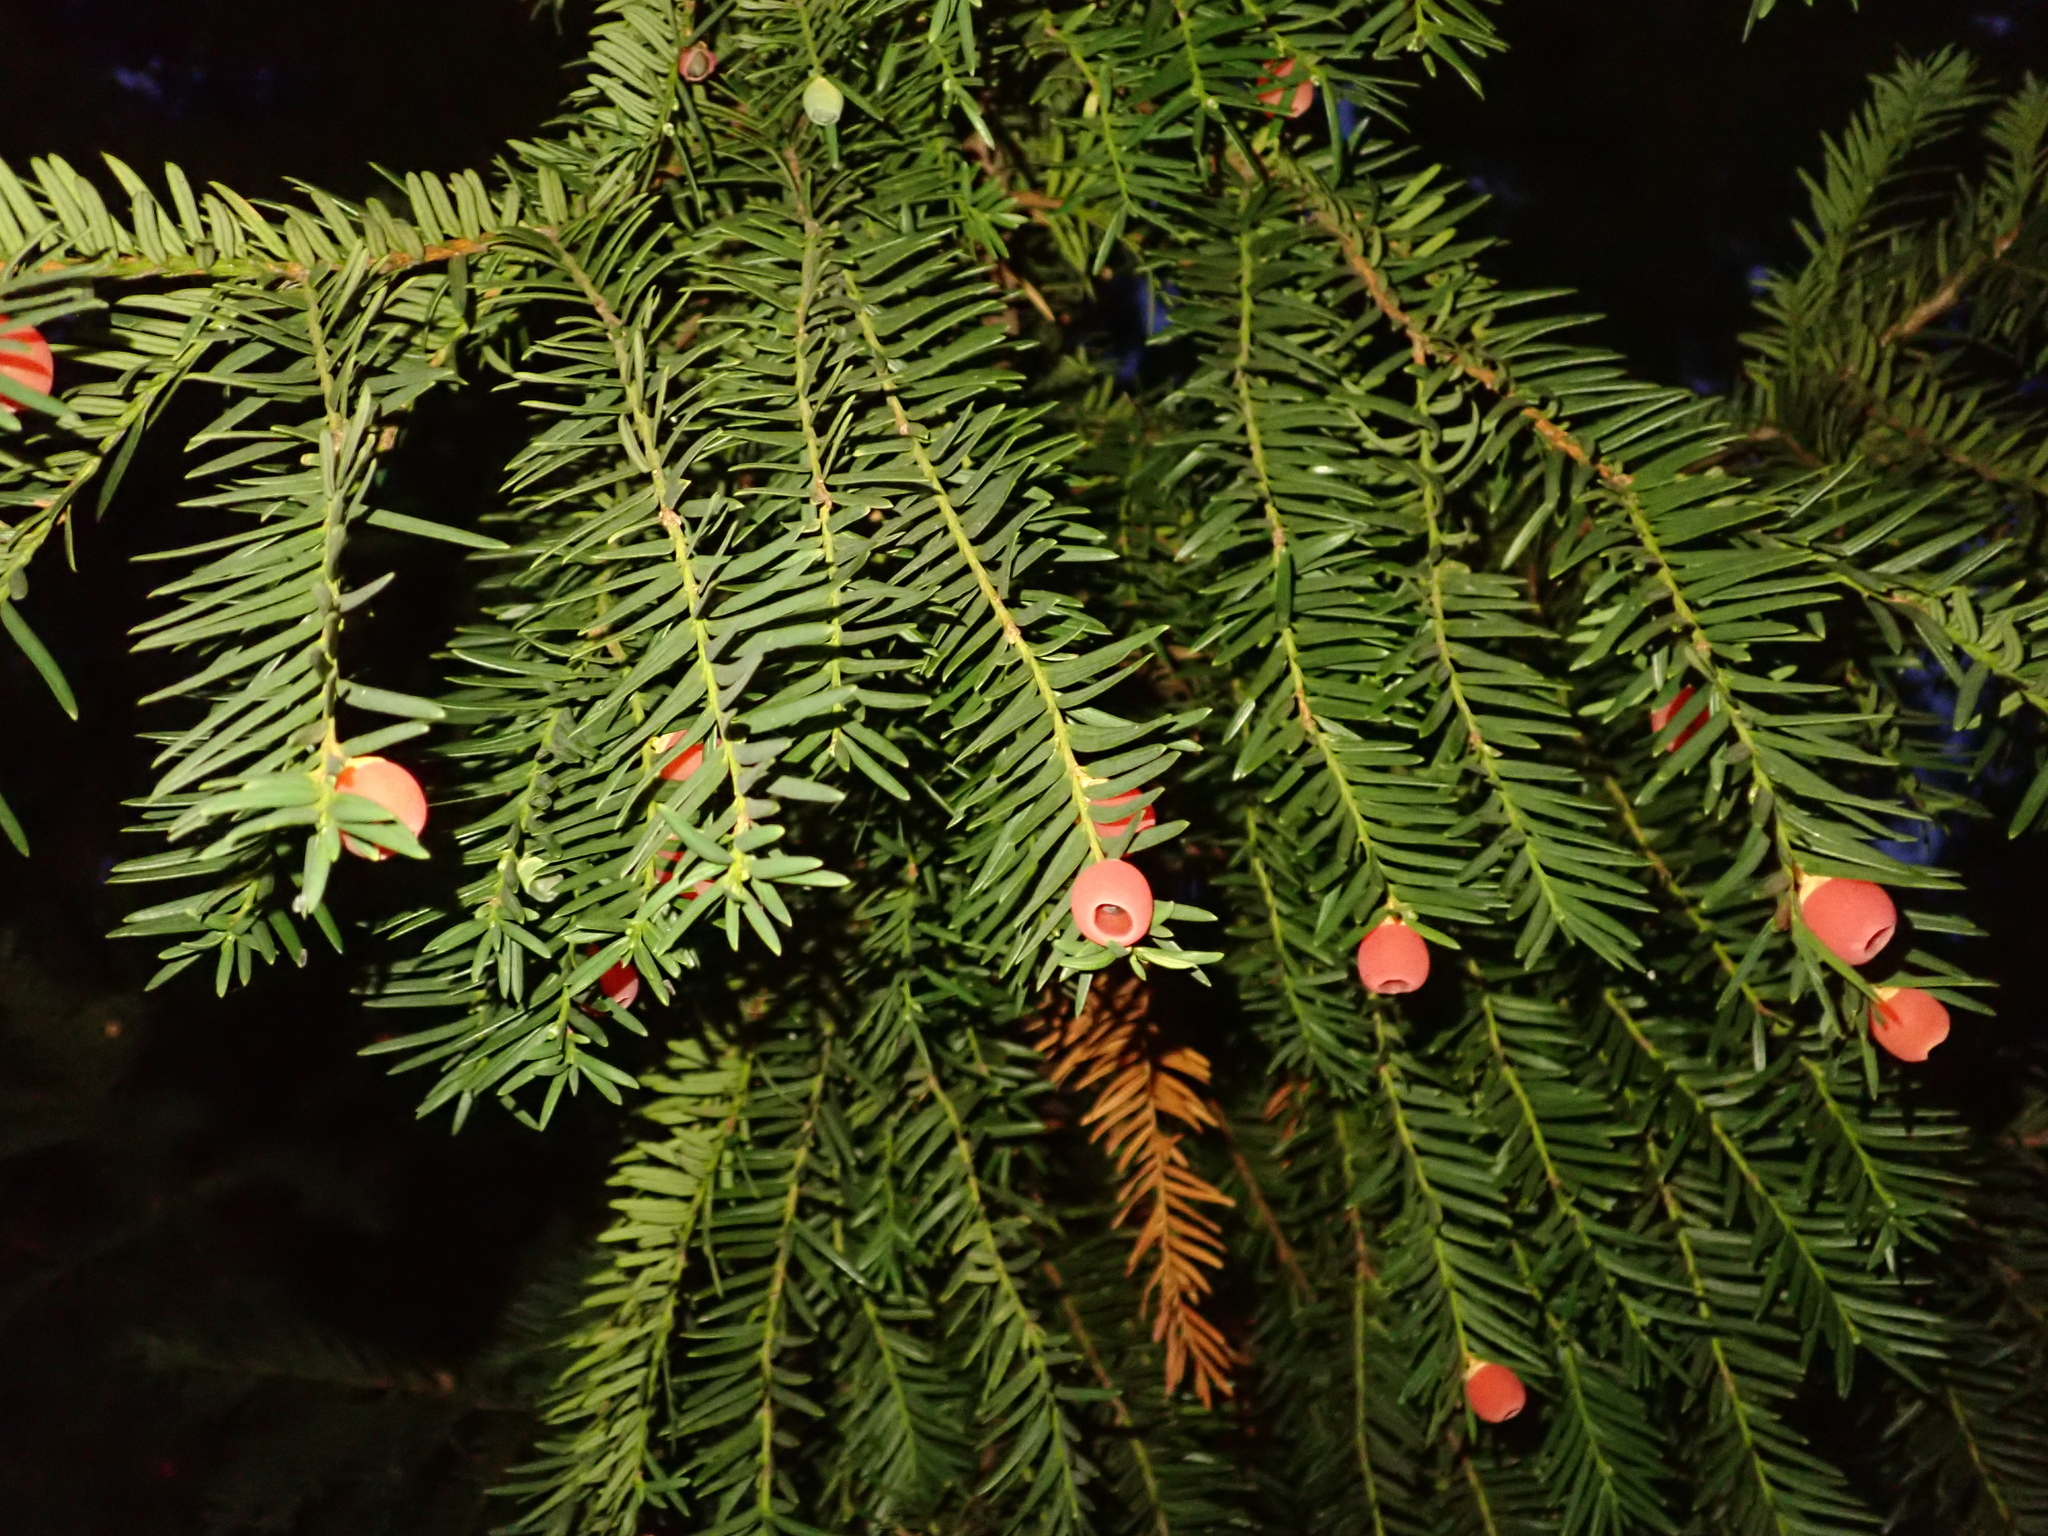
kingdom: Plantae
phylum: Tracheophyta
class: Pinopsida
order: Pinales
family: Taxaceae
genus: Taxus
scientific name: Taxus baccata
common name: Yew
